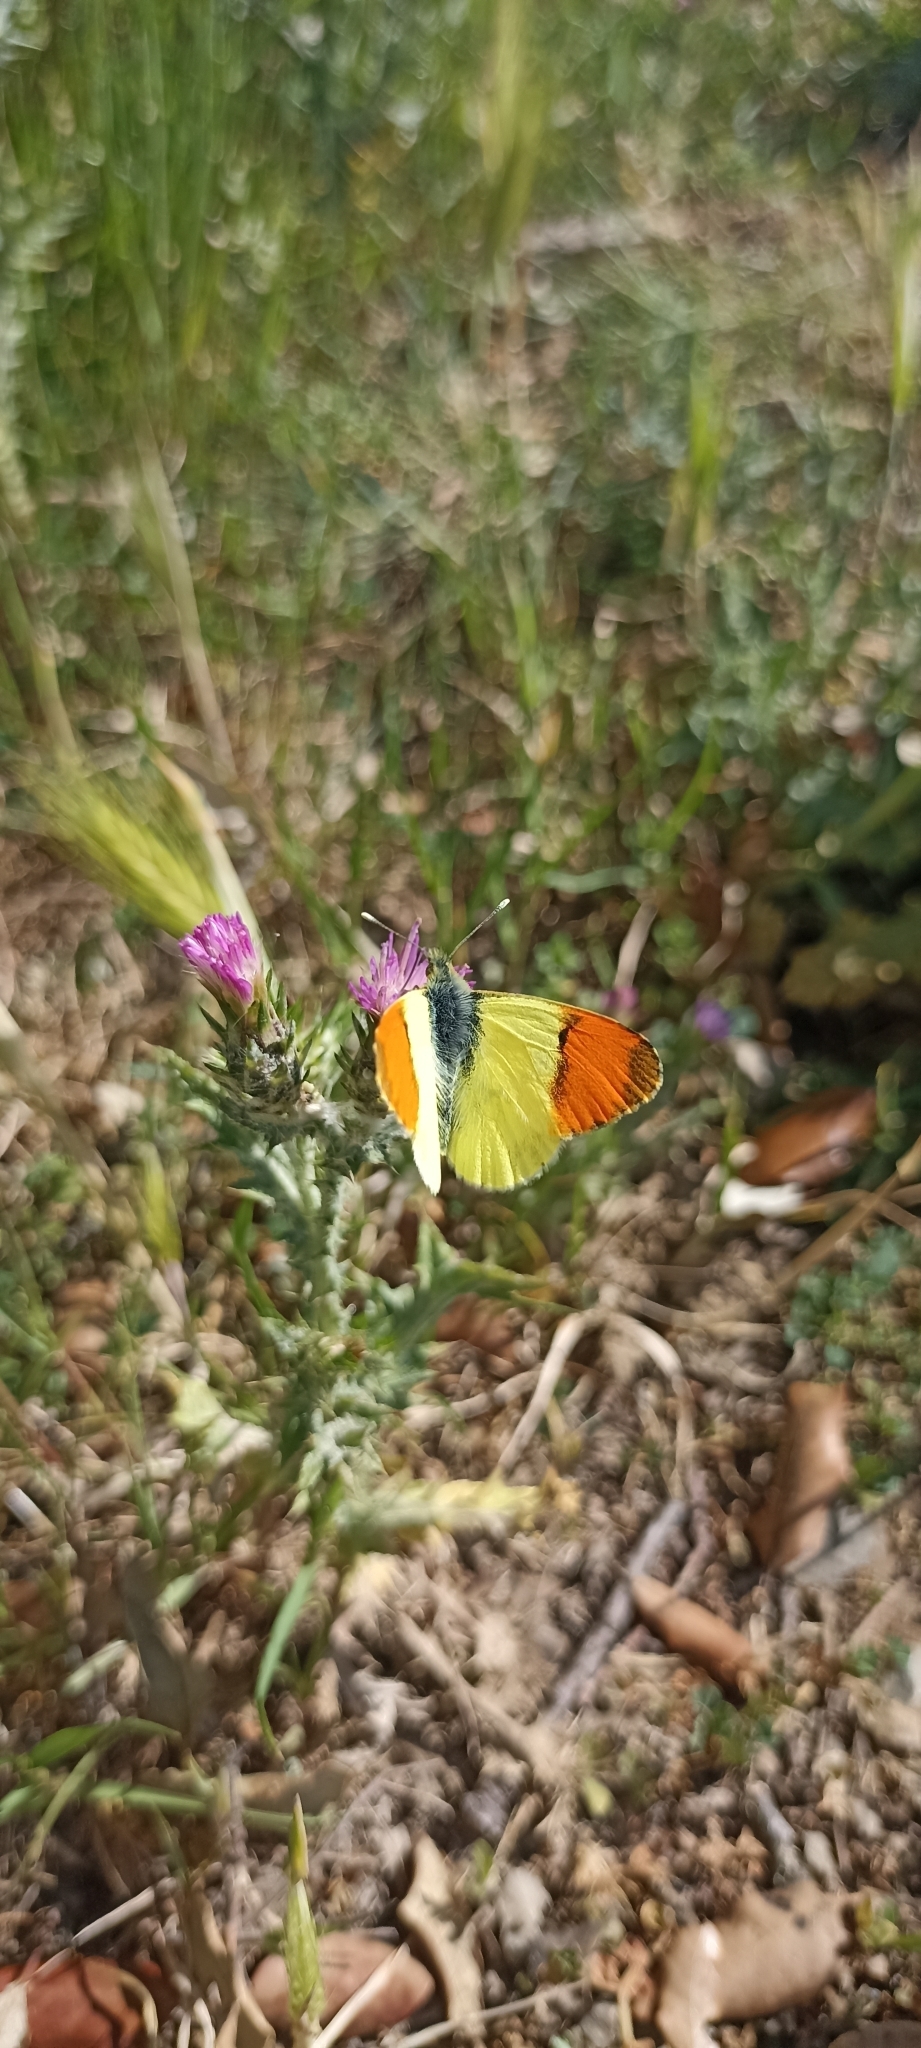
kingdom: Animalia
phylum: Arthropoda
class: Insecta
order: Lepidoptera
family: Pieridae
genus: Anthocharis
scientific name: Anthocharis euphenoides
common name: Provence orange-tip
